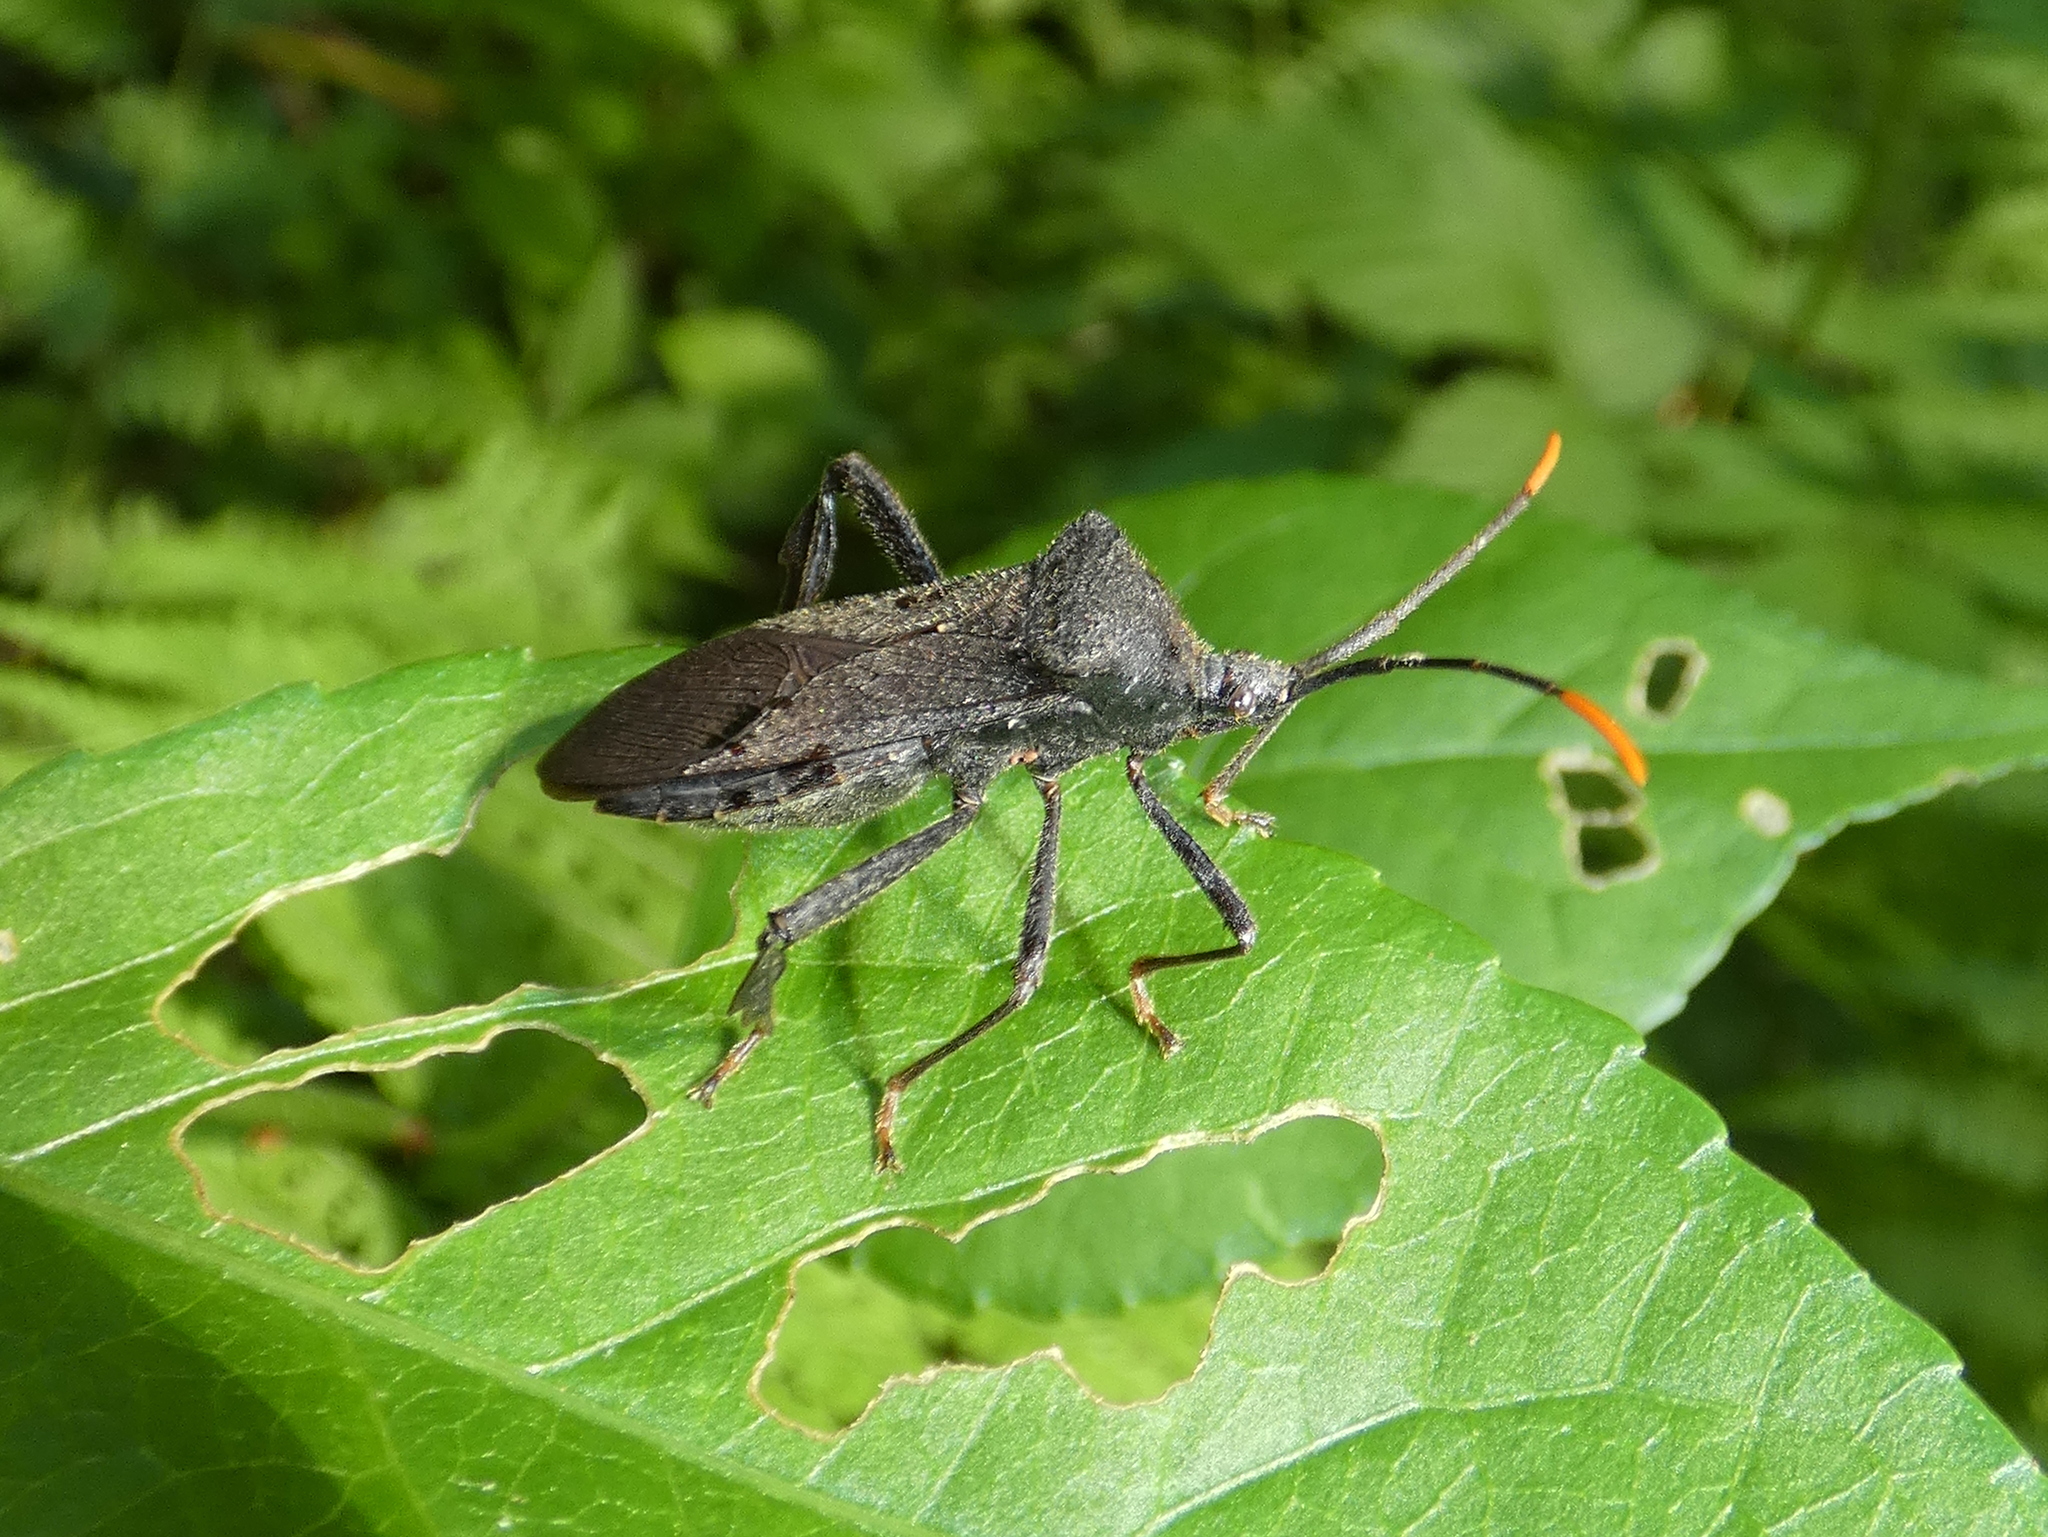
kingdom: Animalia
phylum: Arthropoda
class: Insecta
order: Hemiptera
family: Coreidae
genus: Acanthocephala
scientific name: Acanthocephala terminalis
